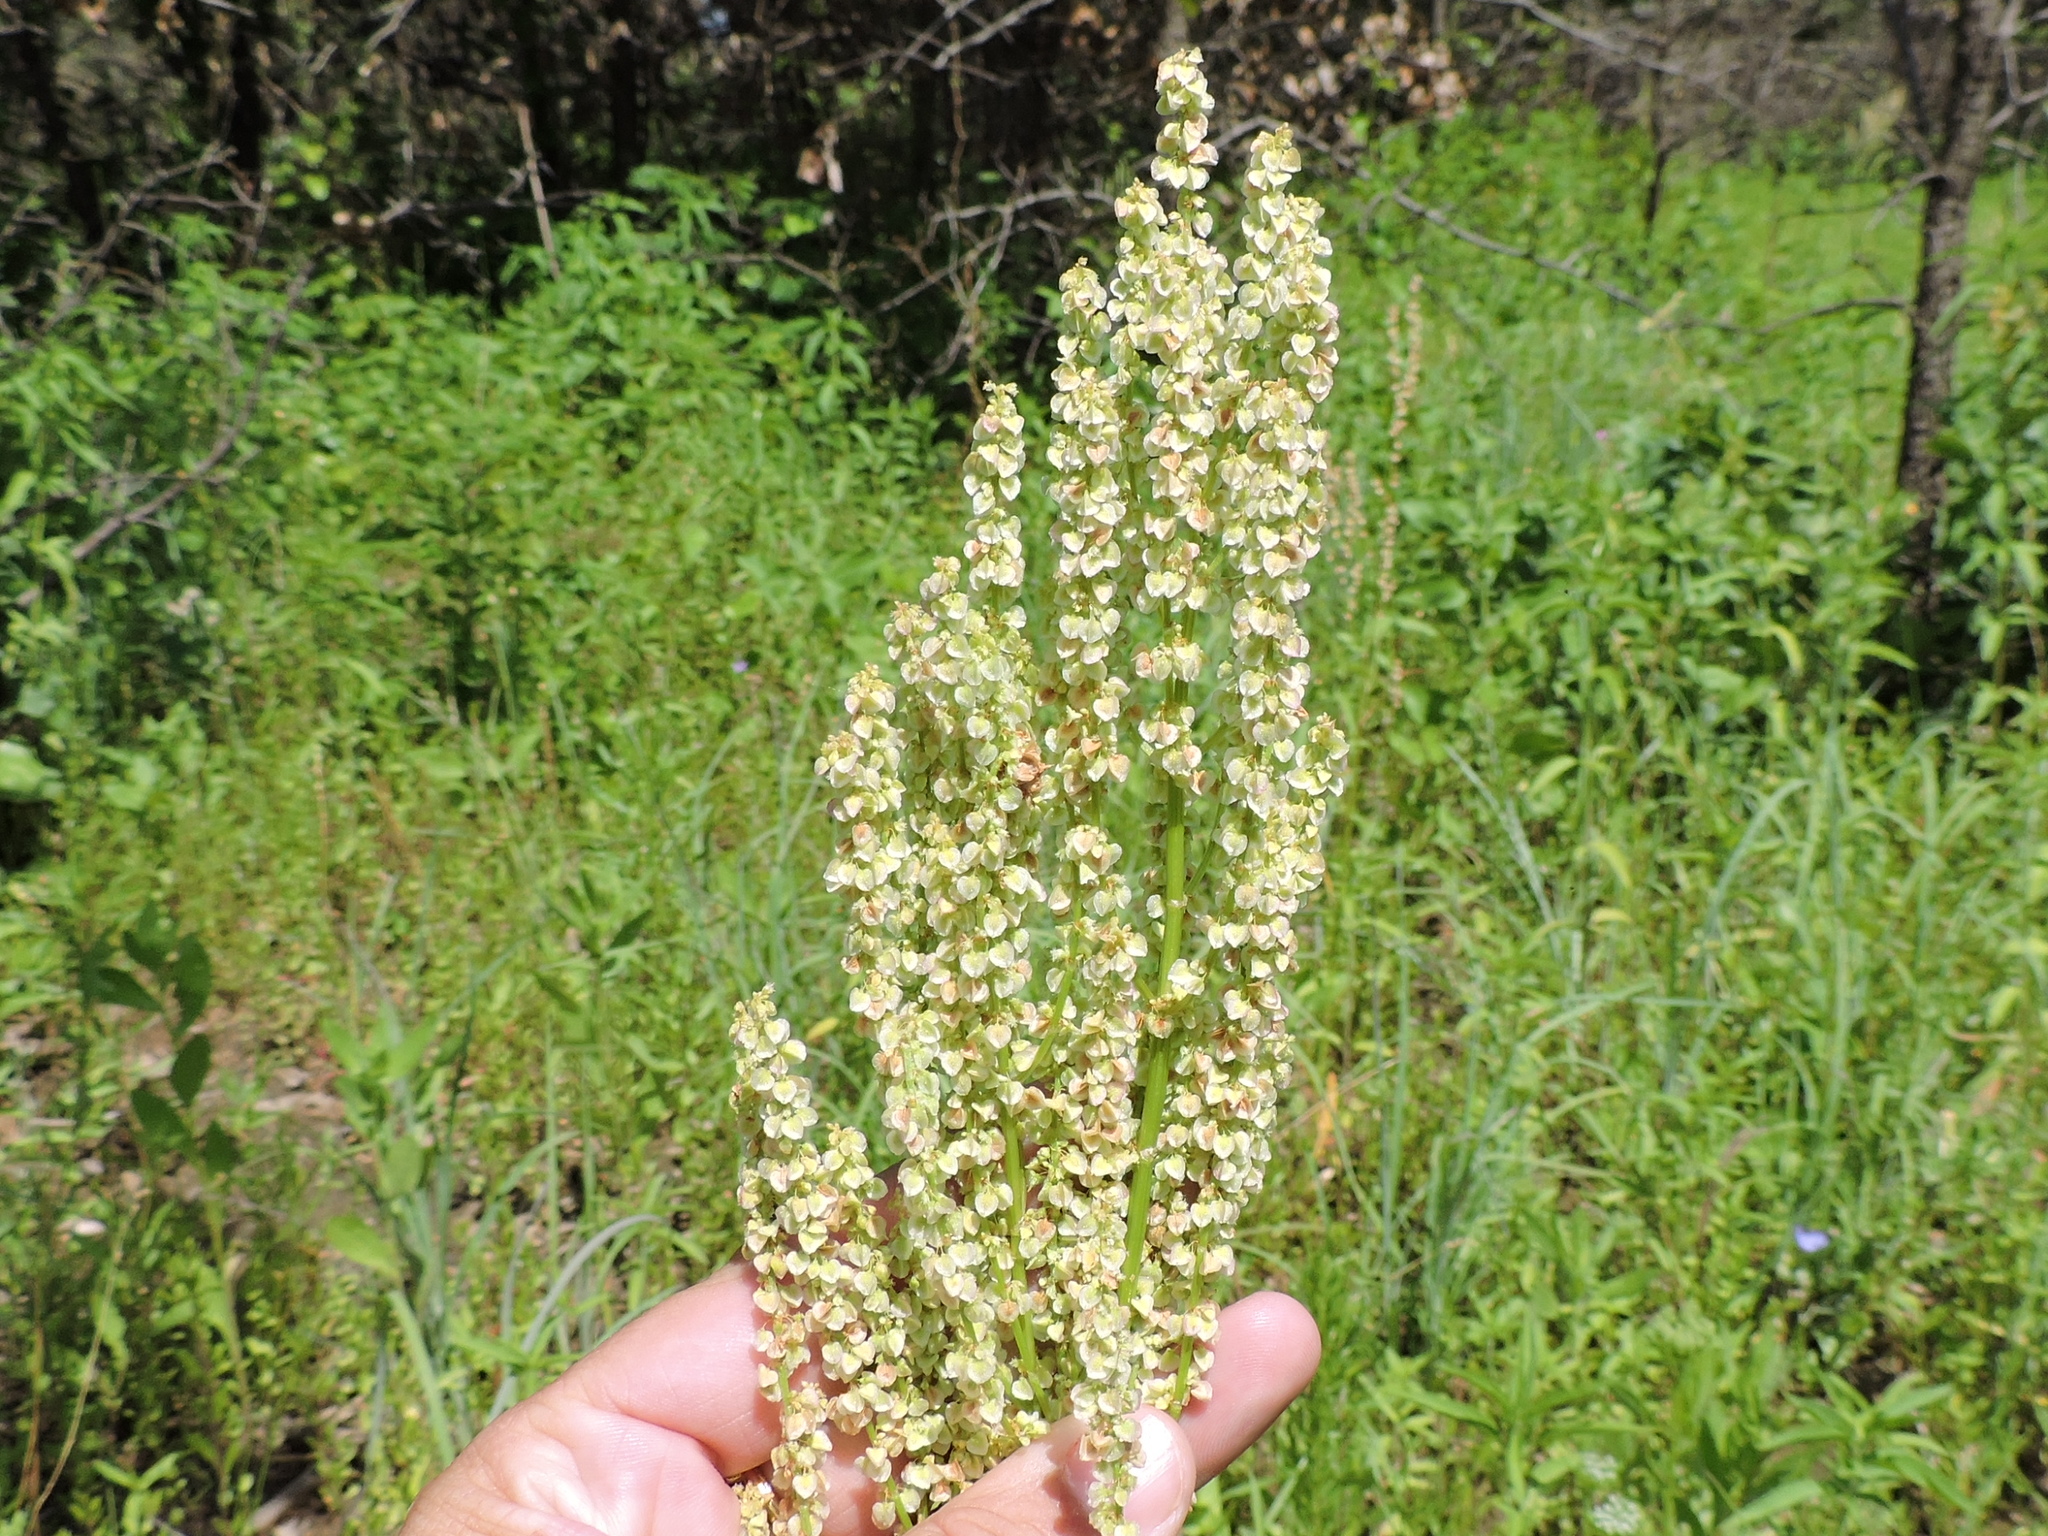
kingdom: Plantae
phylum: Tracheophyta
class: Magnoliopsida
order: Caryophyllales
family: Polygonaceae
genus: Rumex
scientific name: Rumex hastatulus
